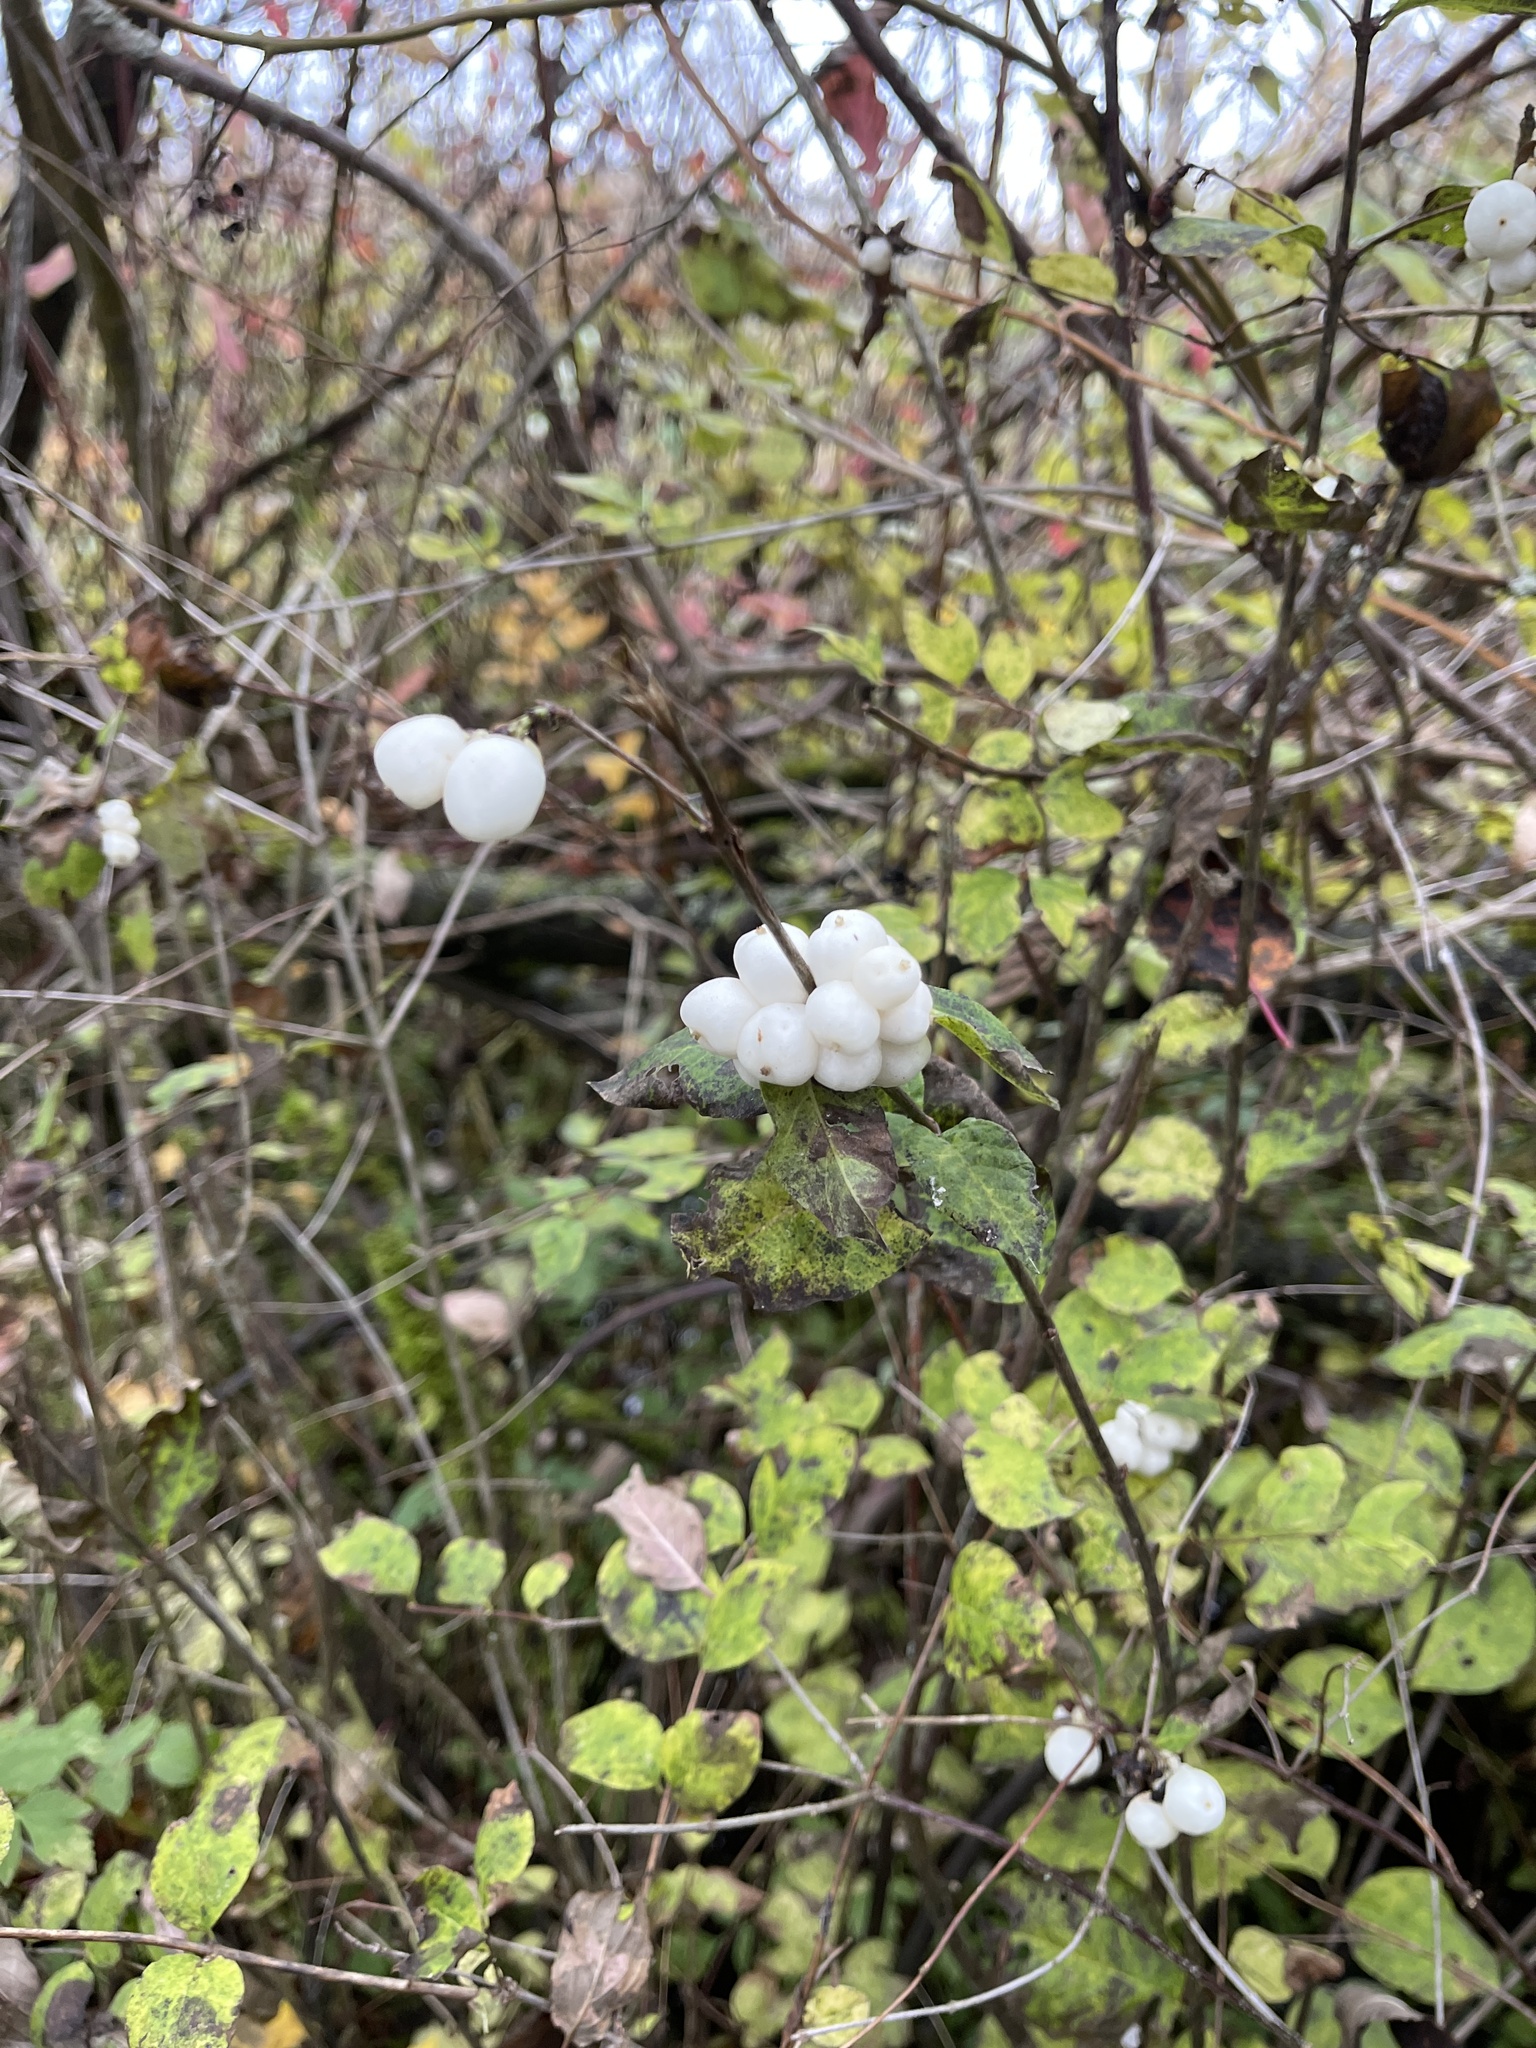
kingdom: Plantae
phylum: Tracheophyta
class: Magnoliopsida
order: Dipsacales
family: Caprifoliaceae
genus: Symphoricarpos
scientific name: Symphoricarpos albus
